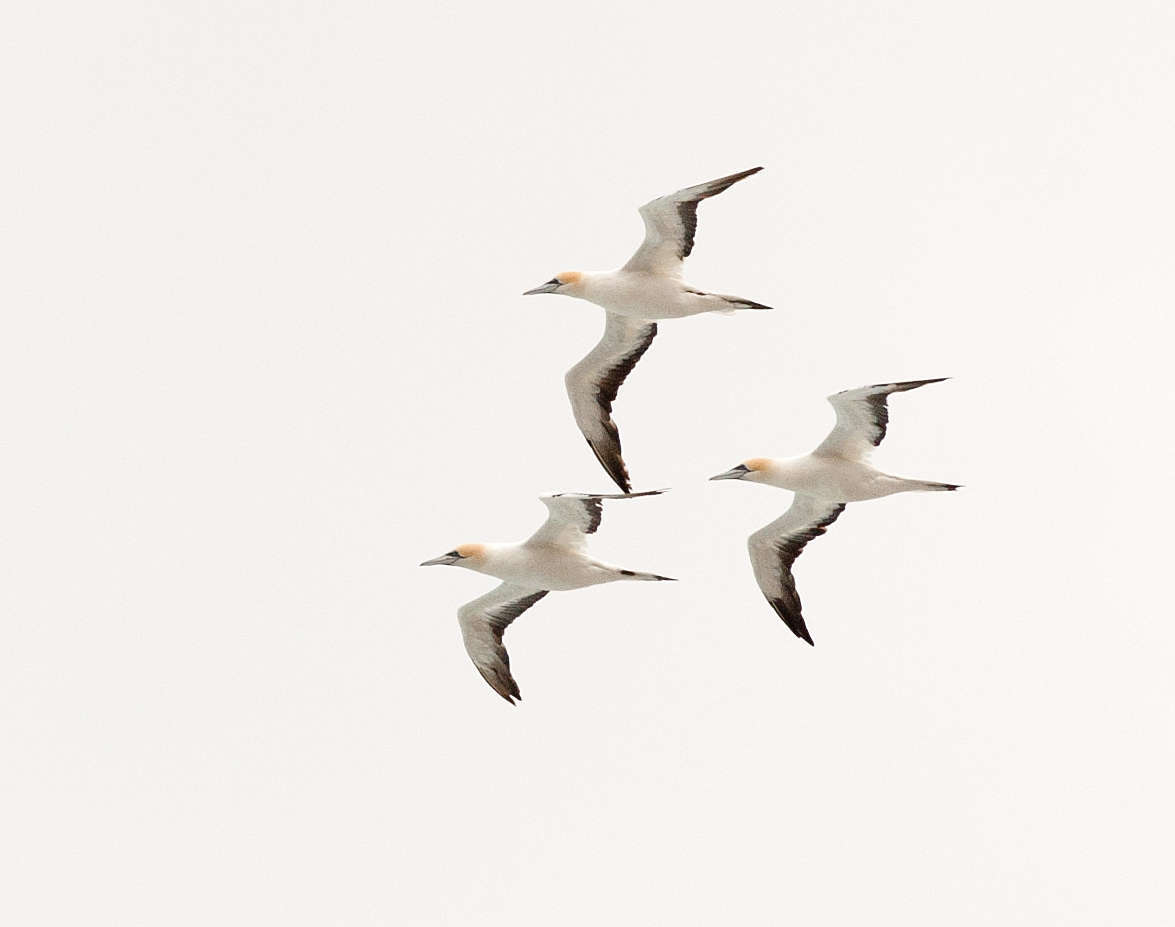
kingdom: Animalia
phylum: Chordata
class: Aves
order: Suliformes
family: Sulidae
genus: Morus
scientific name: Morus serrator
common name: Australasian gannet
